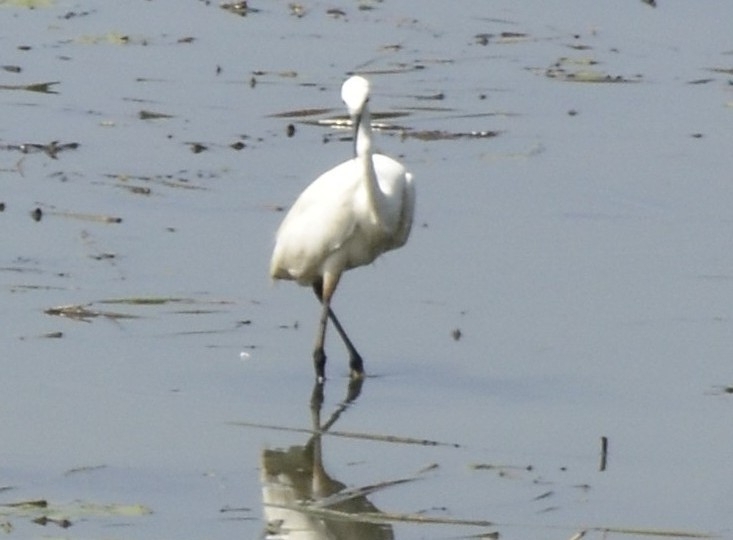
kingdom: Animalia
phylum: Chordata
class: Aves
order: Pelecaniformes
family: Ardeidae
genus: Egretta
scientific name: Egretta garzetta
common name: Little egret
